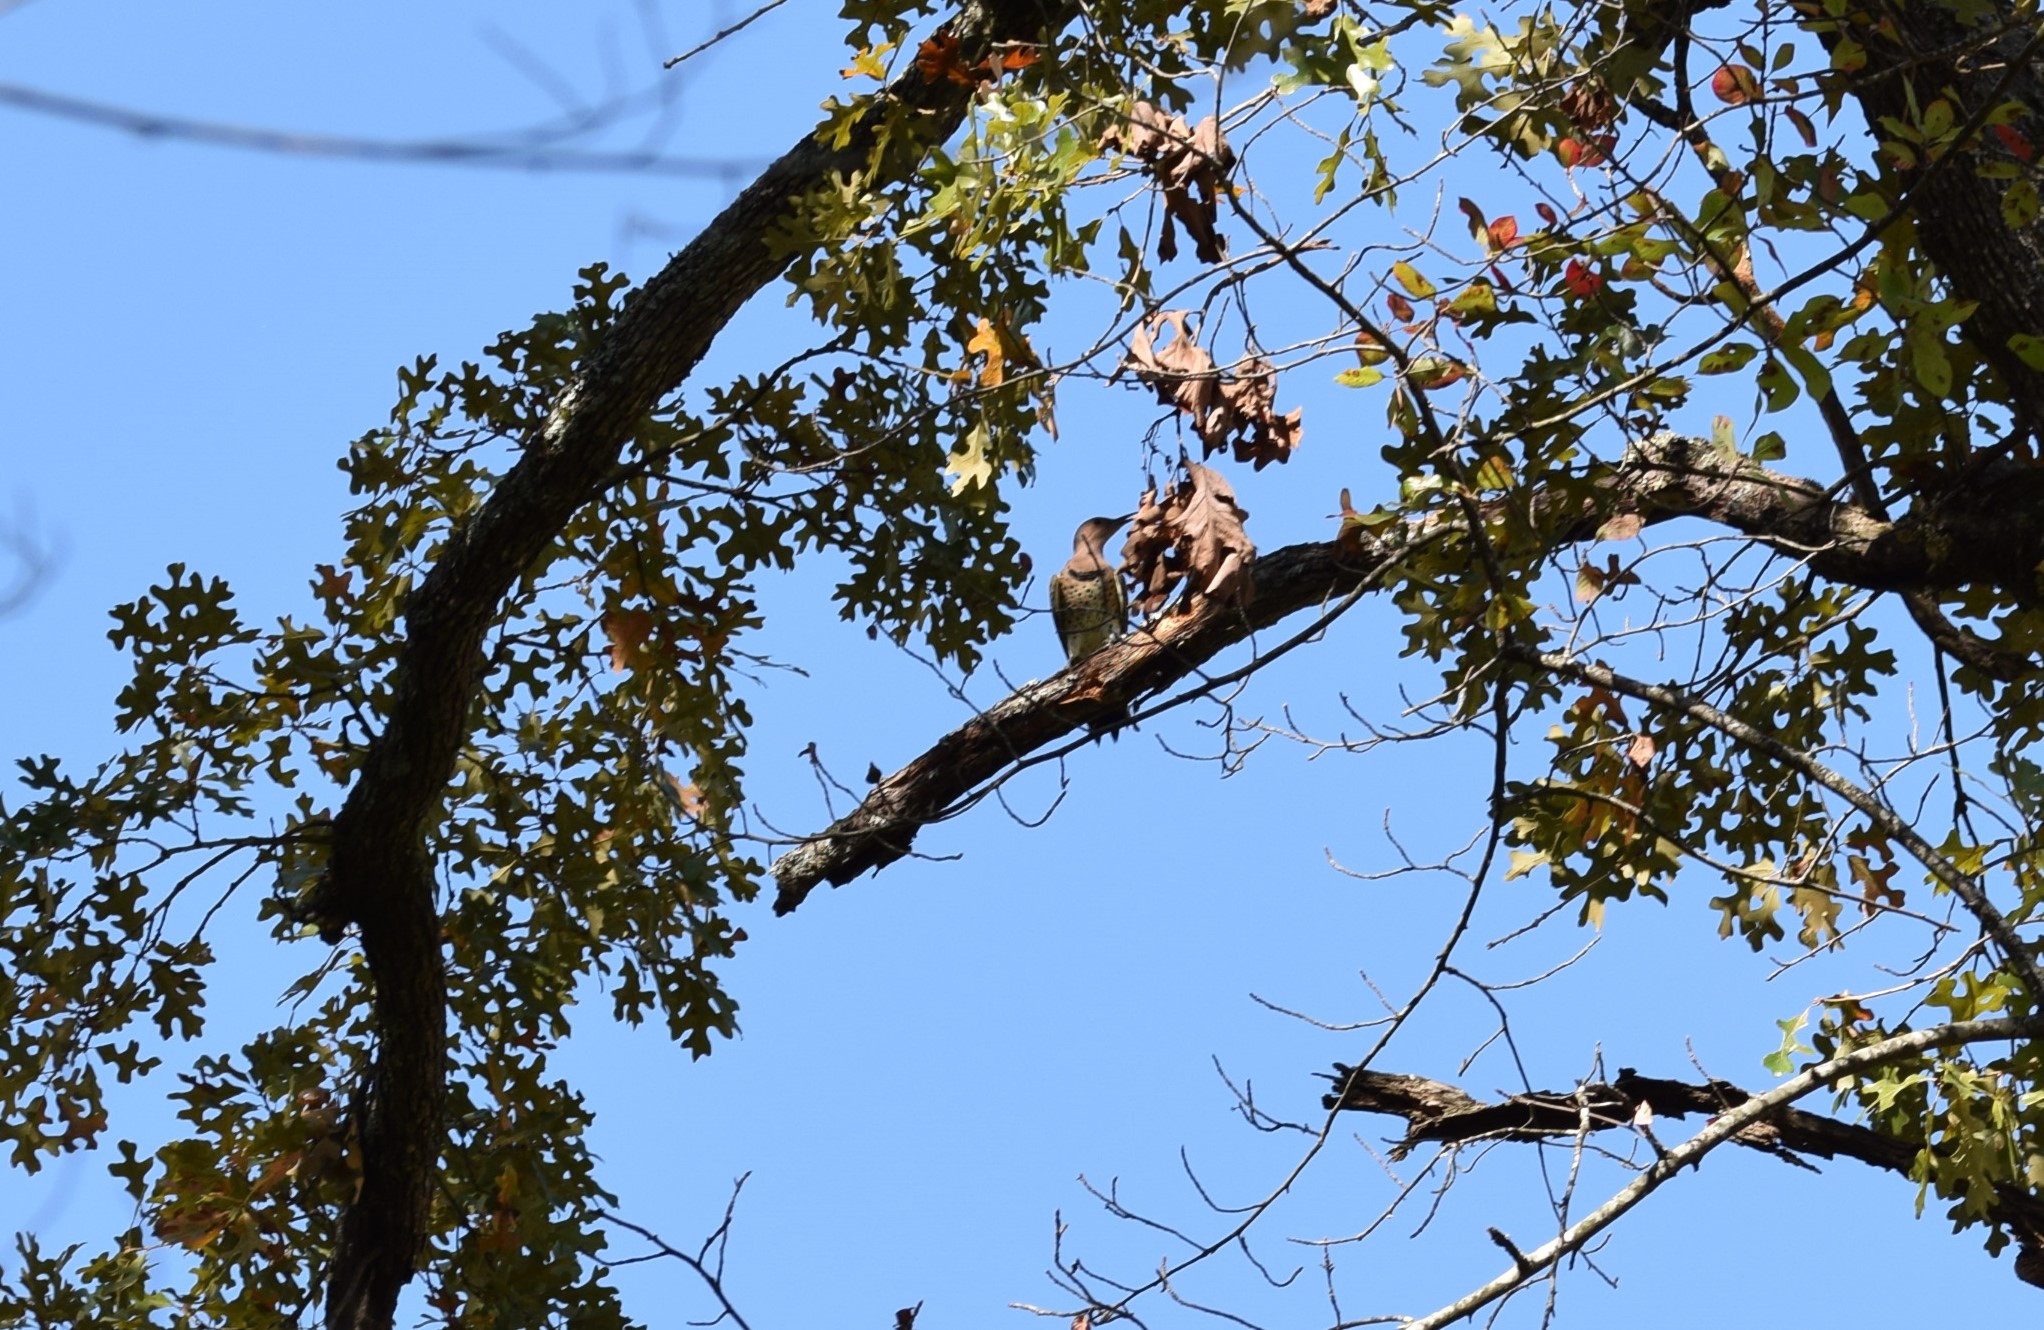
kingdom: Animalia
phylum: Chordata
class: Aves
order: Piciformes
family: Picidae
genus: Colaptes
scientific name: Colaptes auratus
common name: Northern flicker
